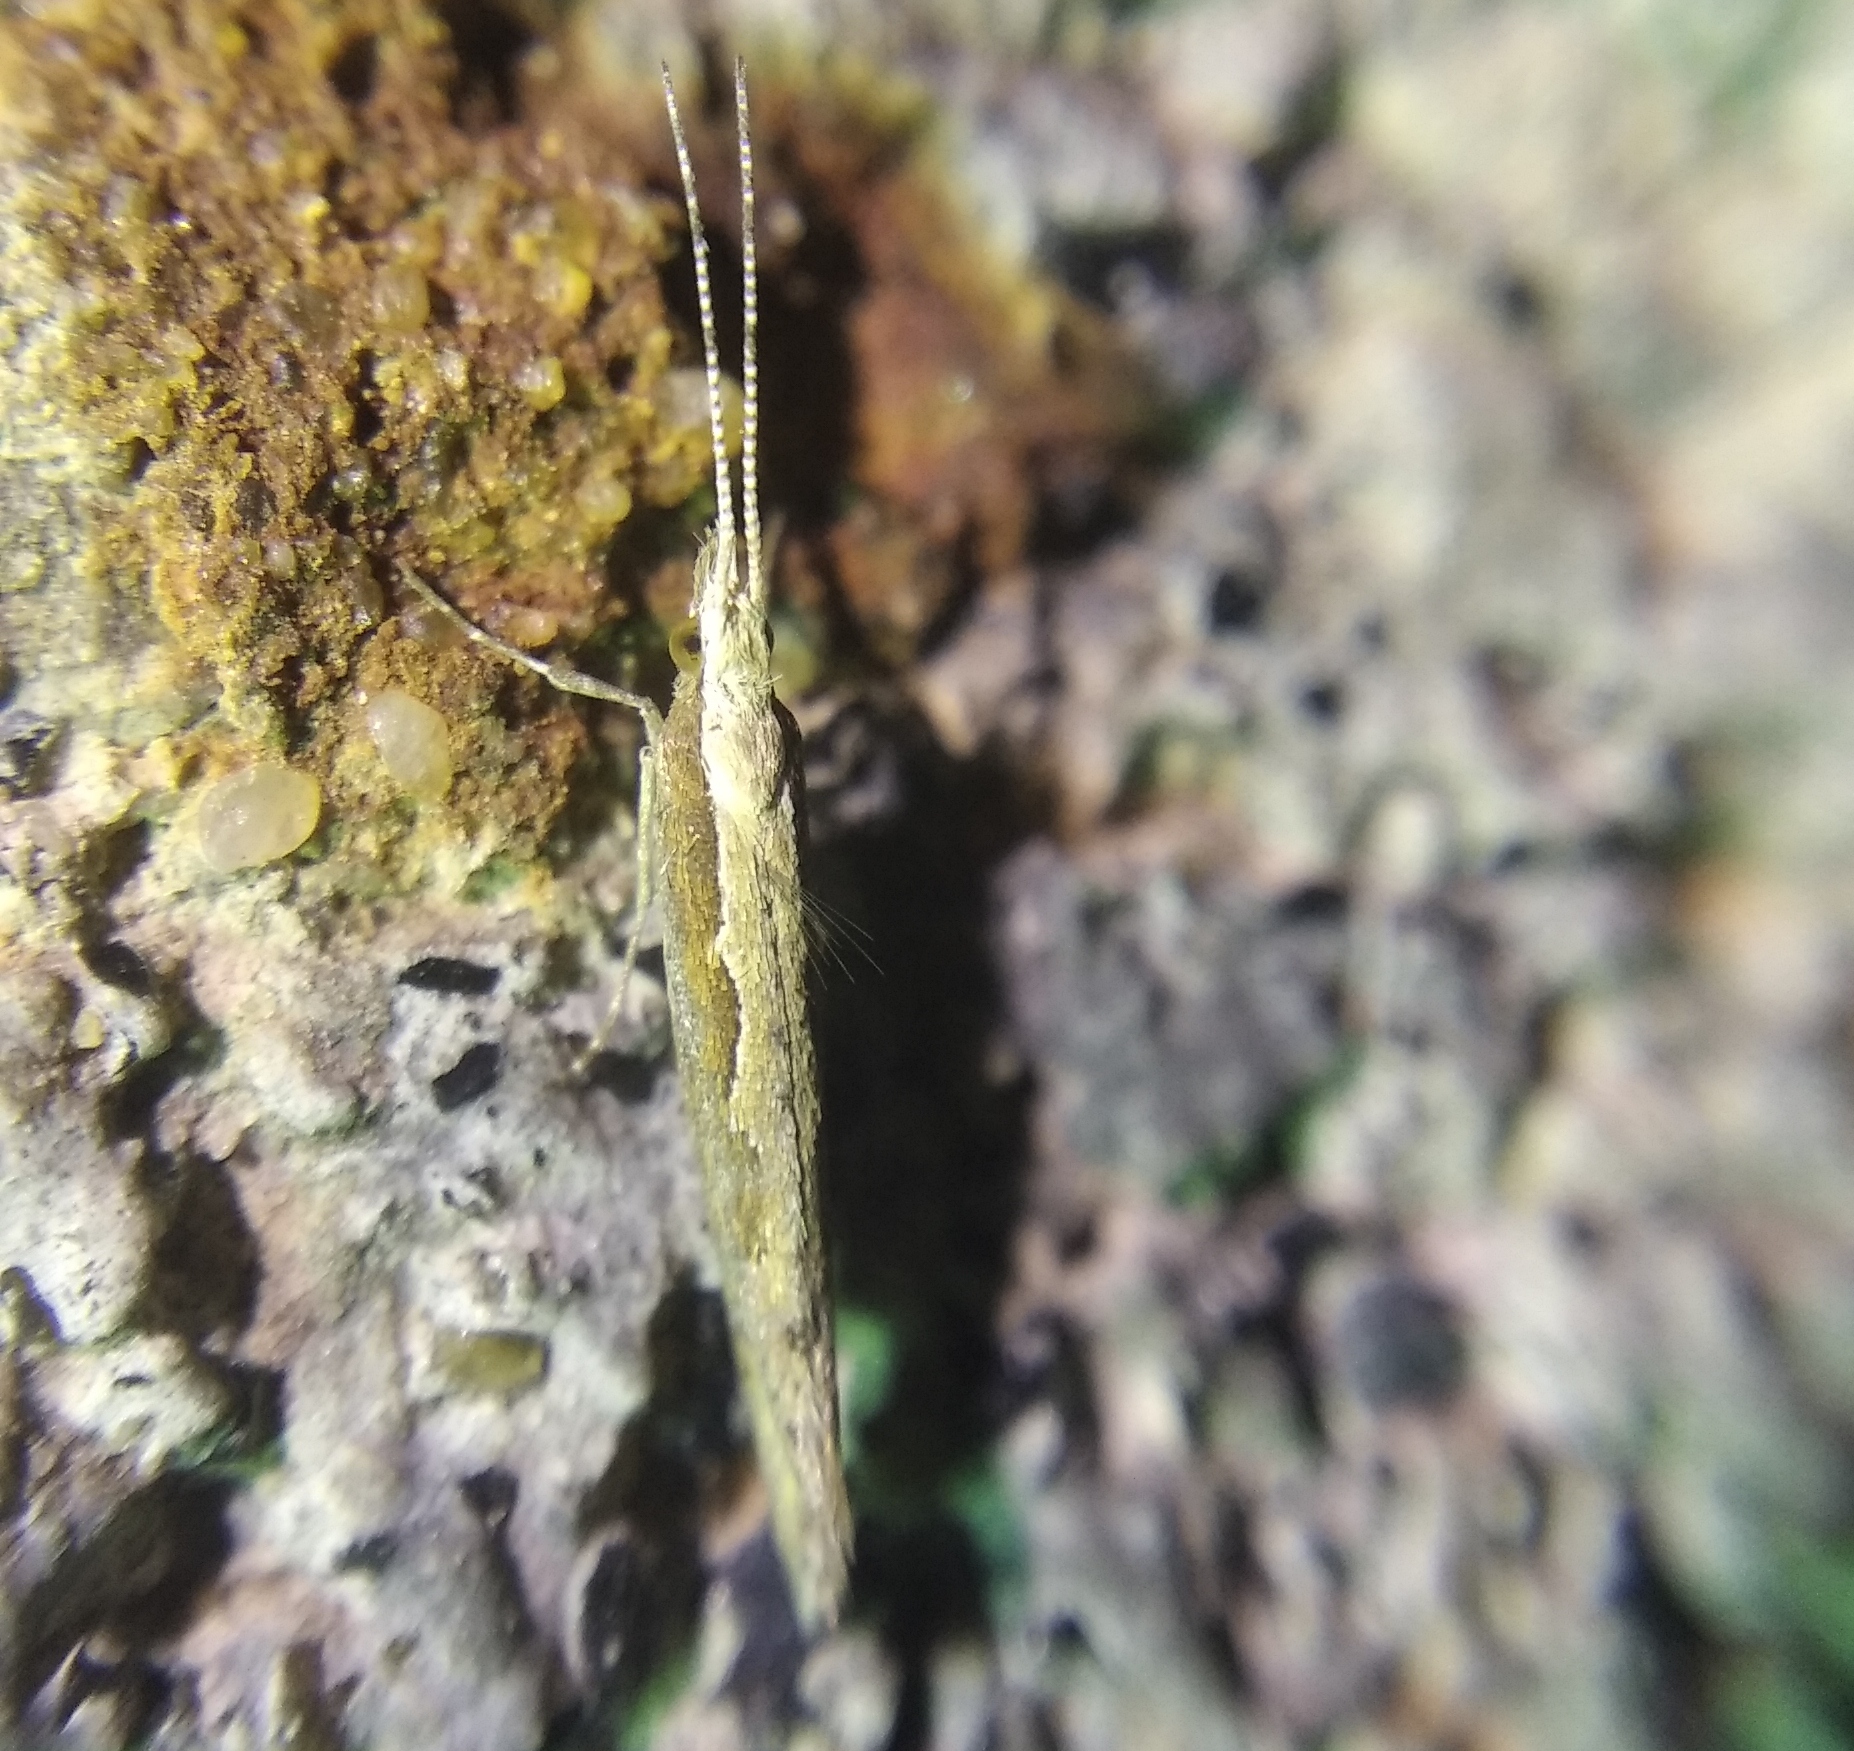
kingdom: Animalia
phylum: Arthropoda
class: Insecta
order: Lepidoptera
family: Plutellidae
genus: Plutella
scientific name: Plutella xylostella
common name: Diamond-back moth
